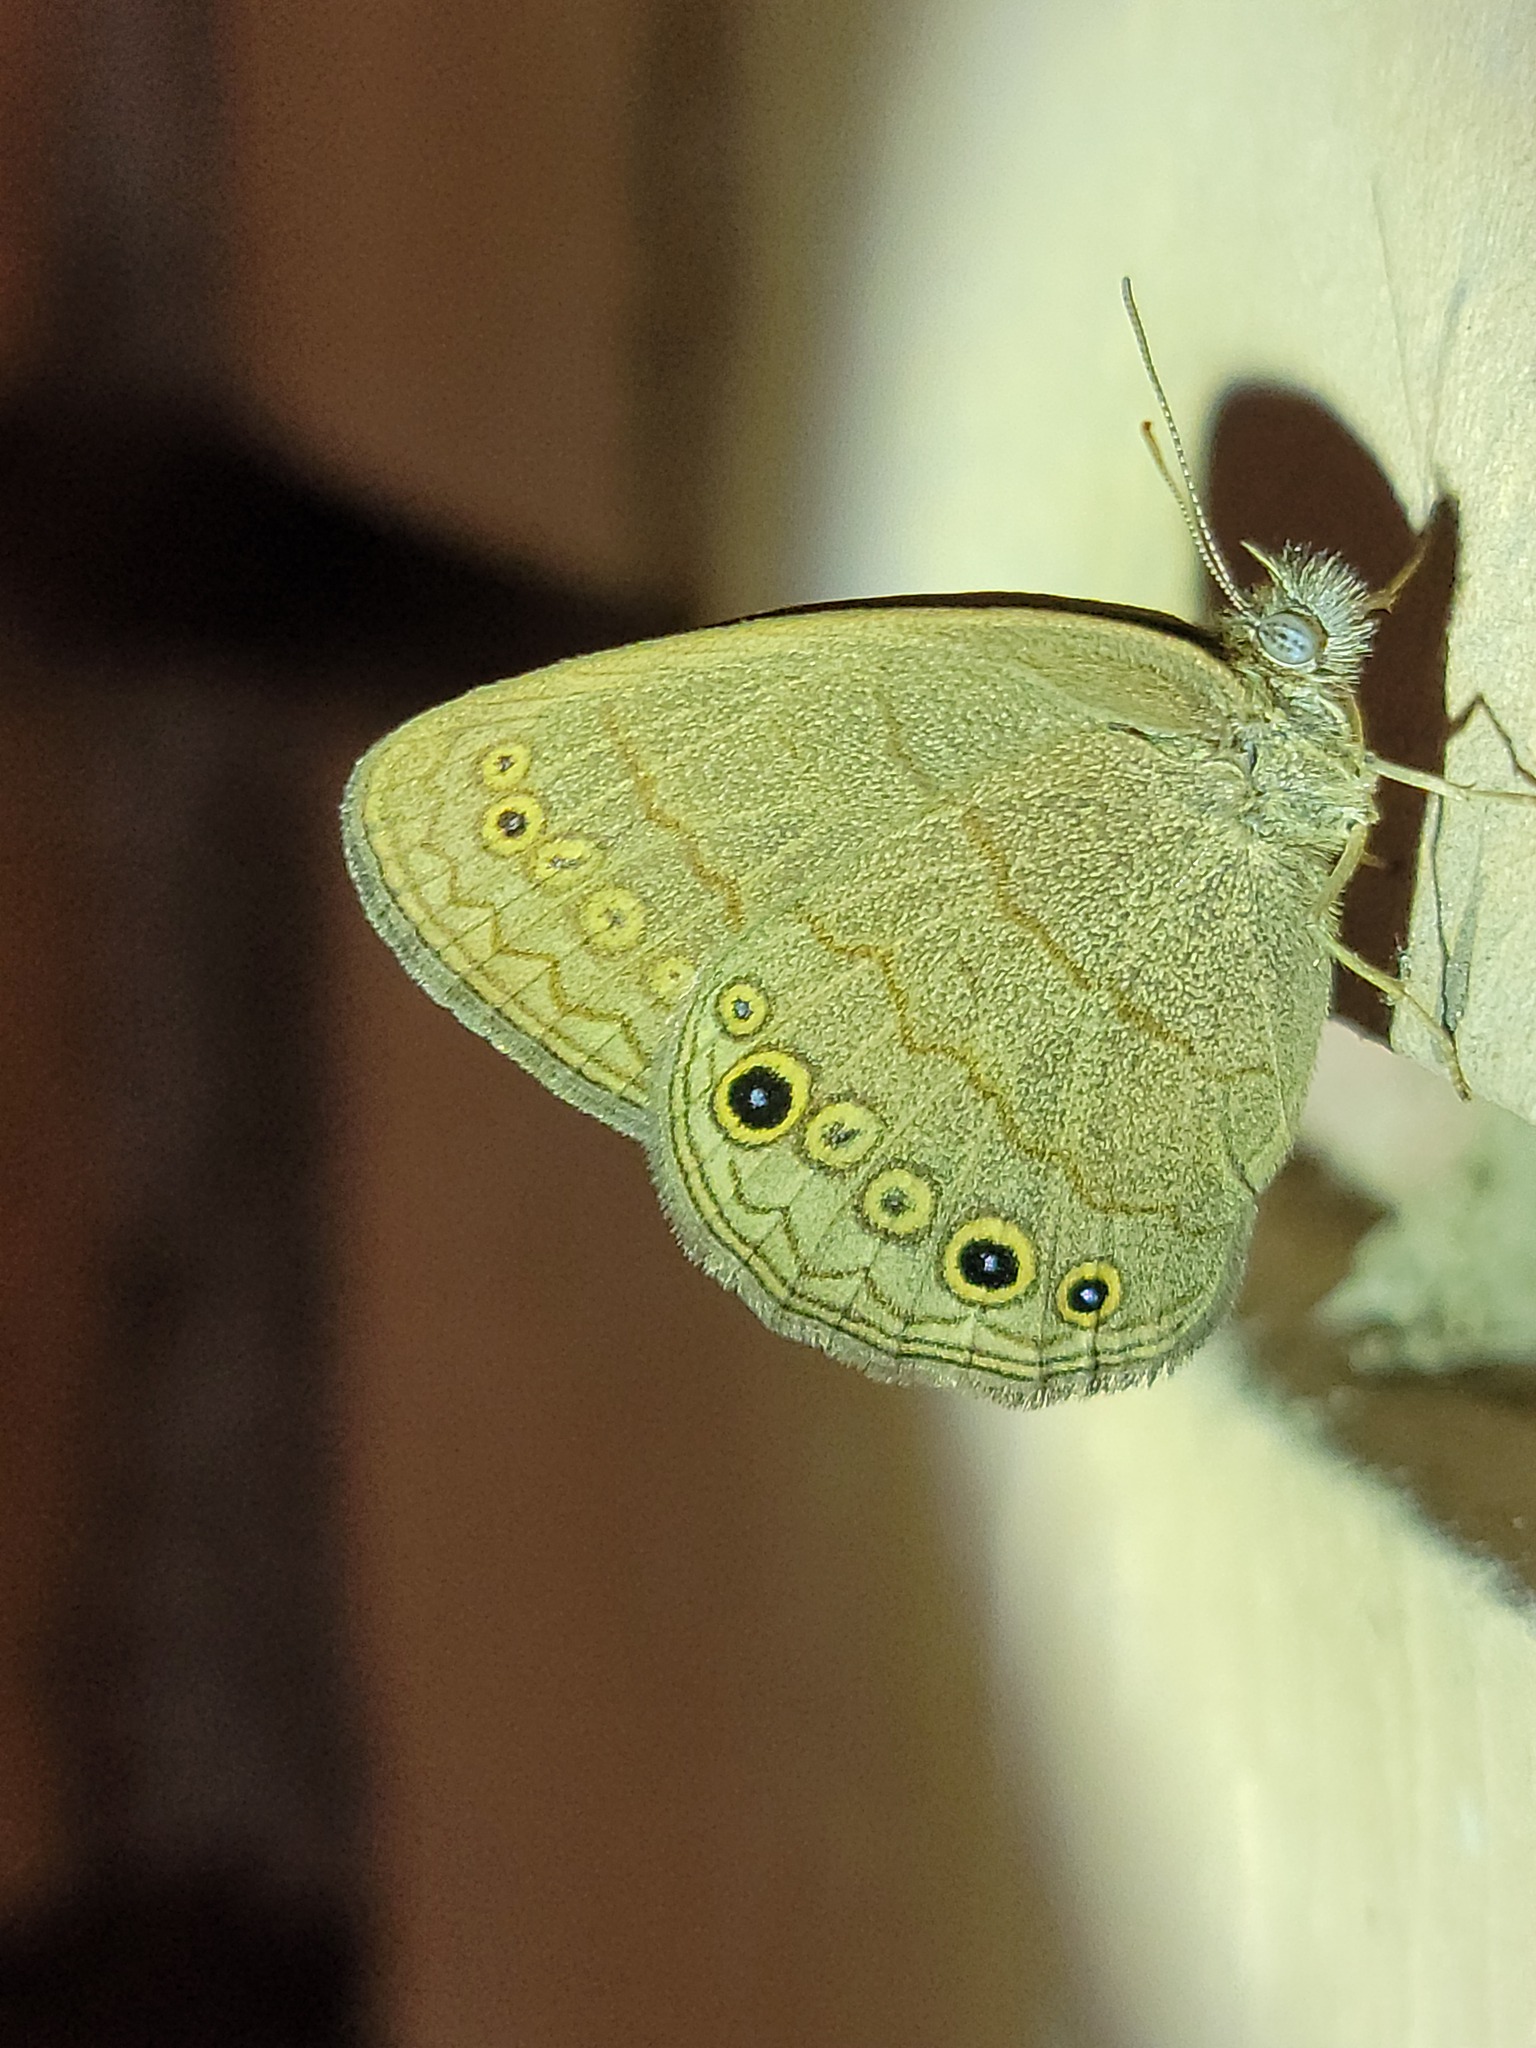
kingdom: Animalia
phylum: Arthropoda
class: Insecta
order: Lepidoptera
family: Nymphalidae
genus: Hermeuptychia
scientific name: Hermeuptychia hermes
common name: Hermes satyr
